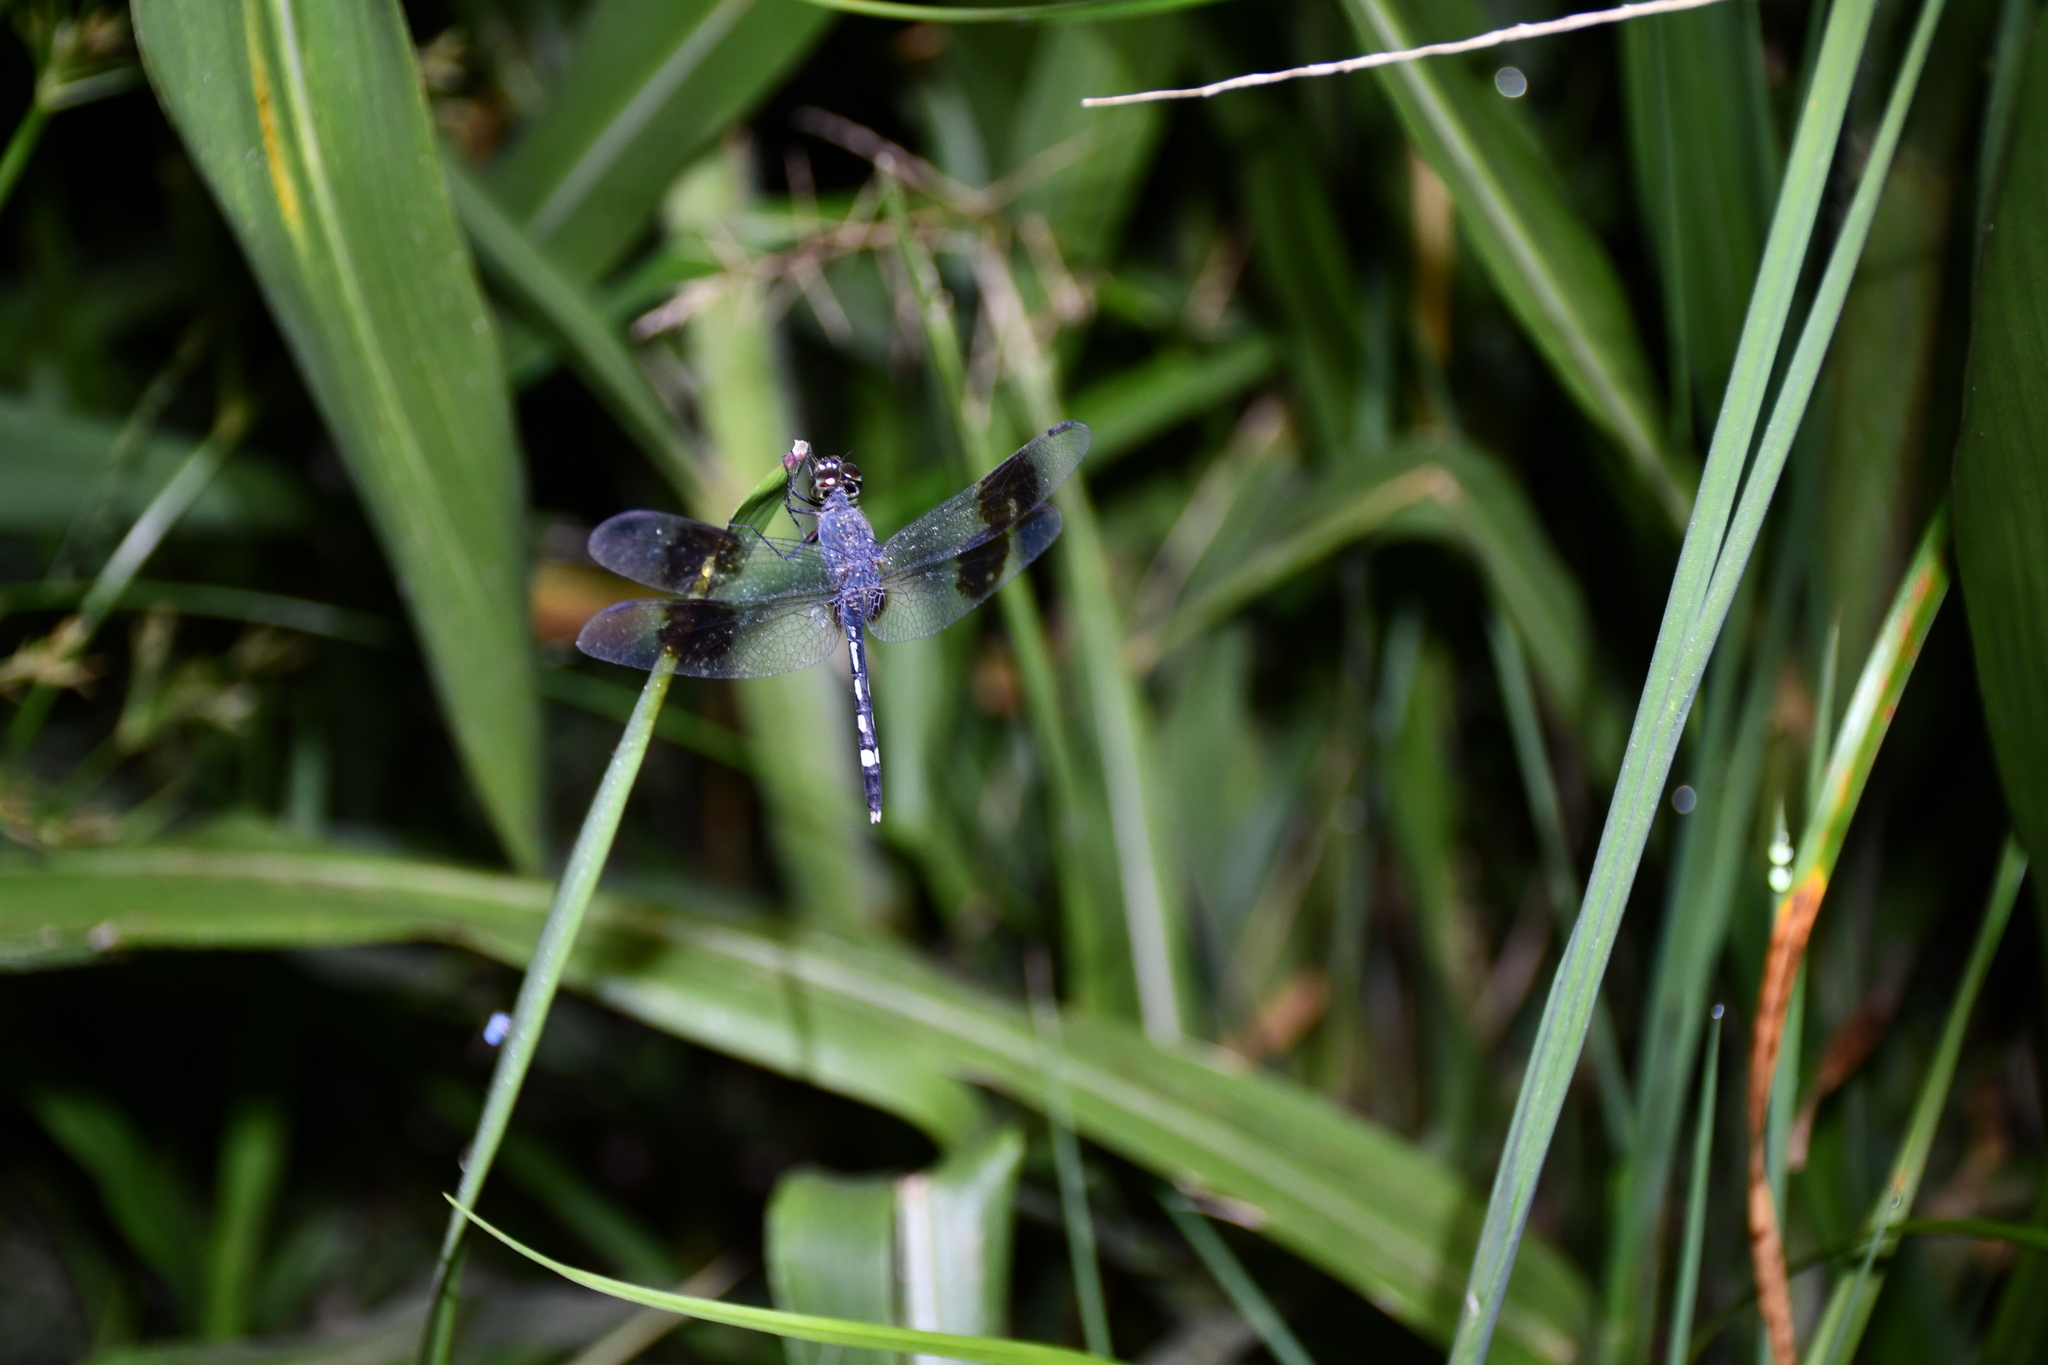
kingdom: Animalia
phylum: Arthropoda
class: Insecta
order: Odonata
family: Libellulidae
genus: Erythrodiplax
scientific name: Erythrodiplax venusta
